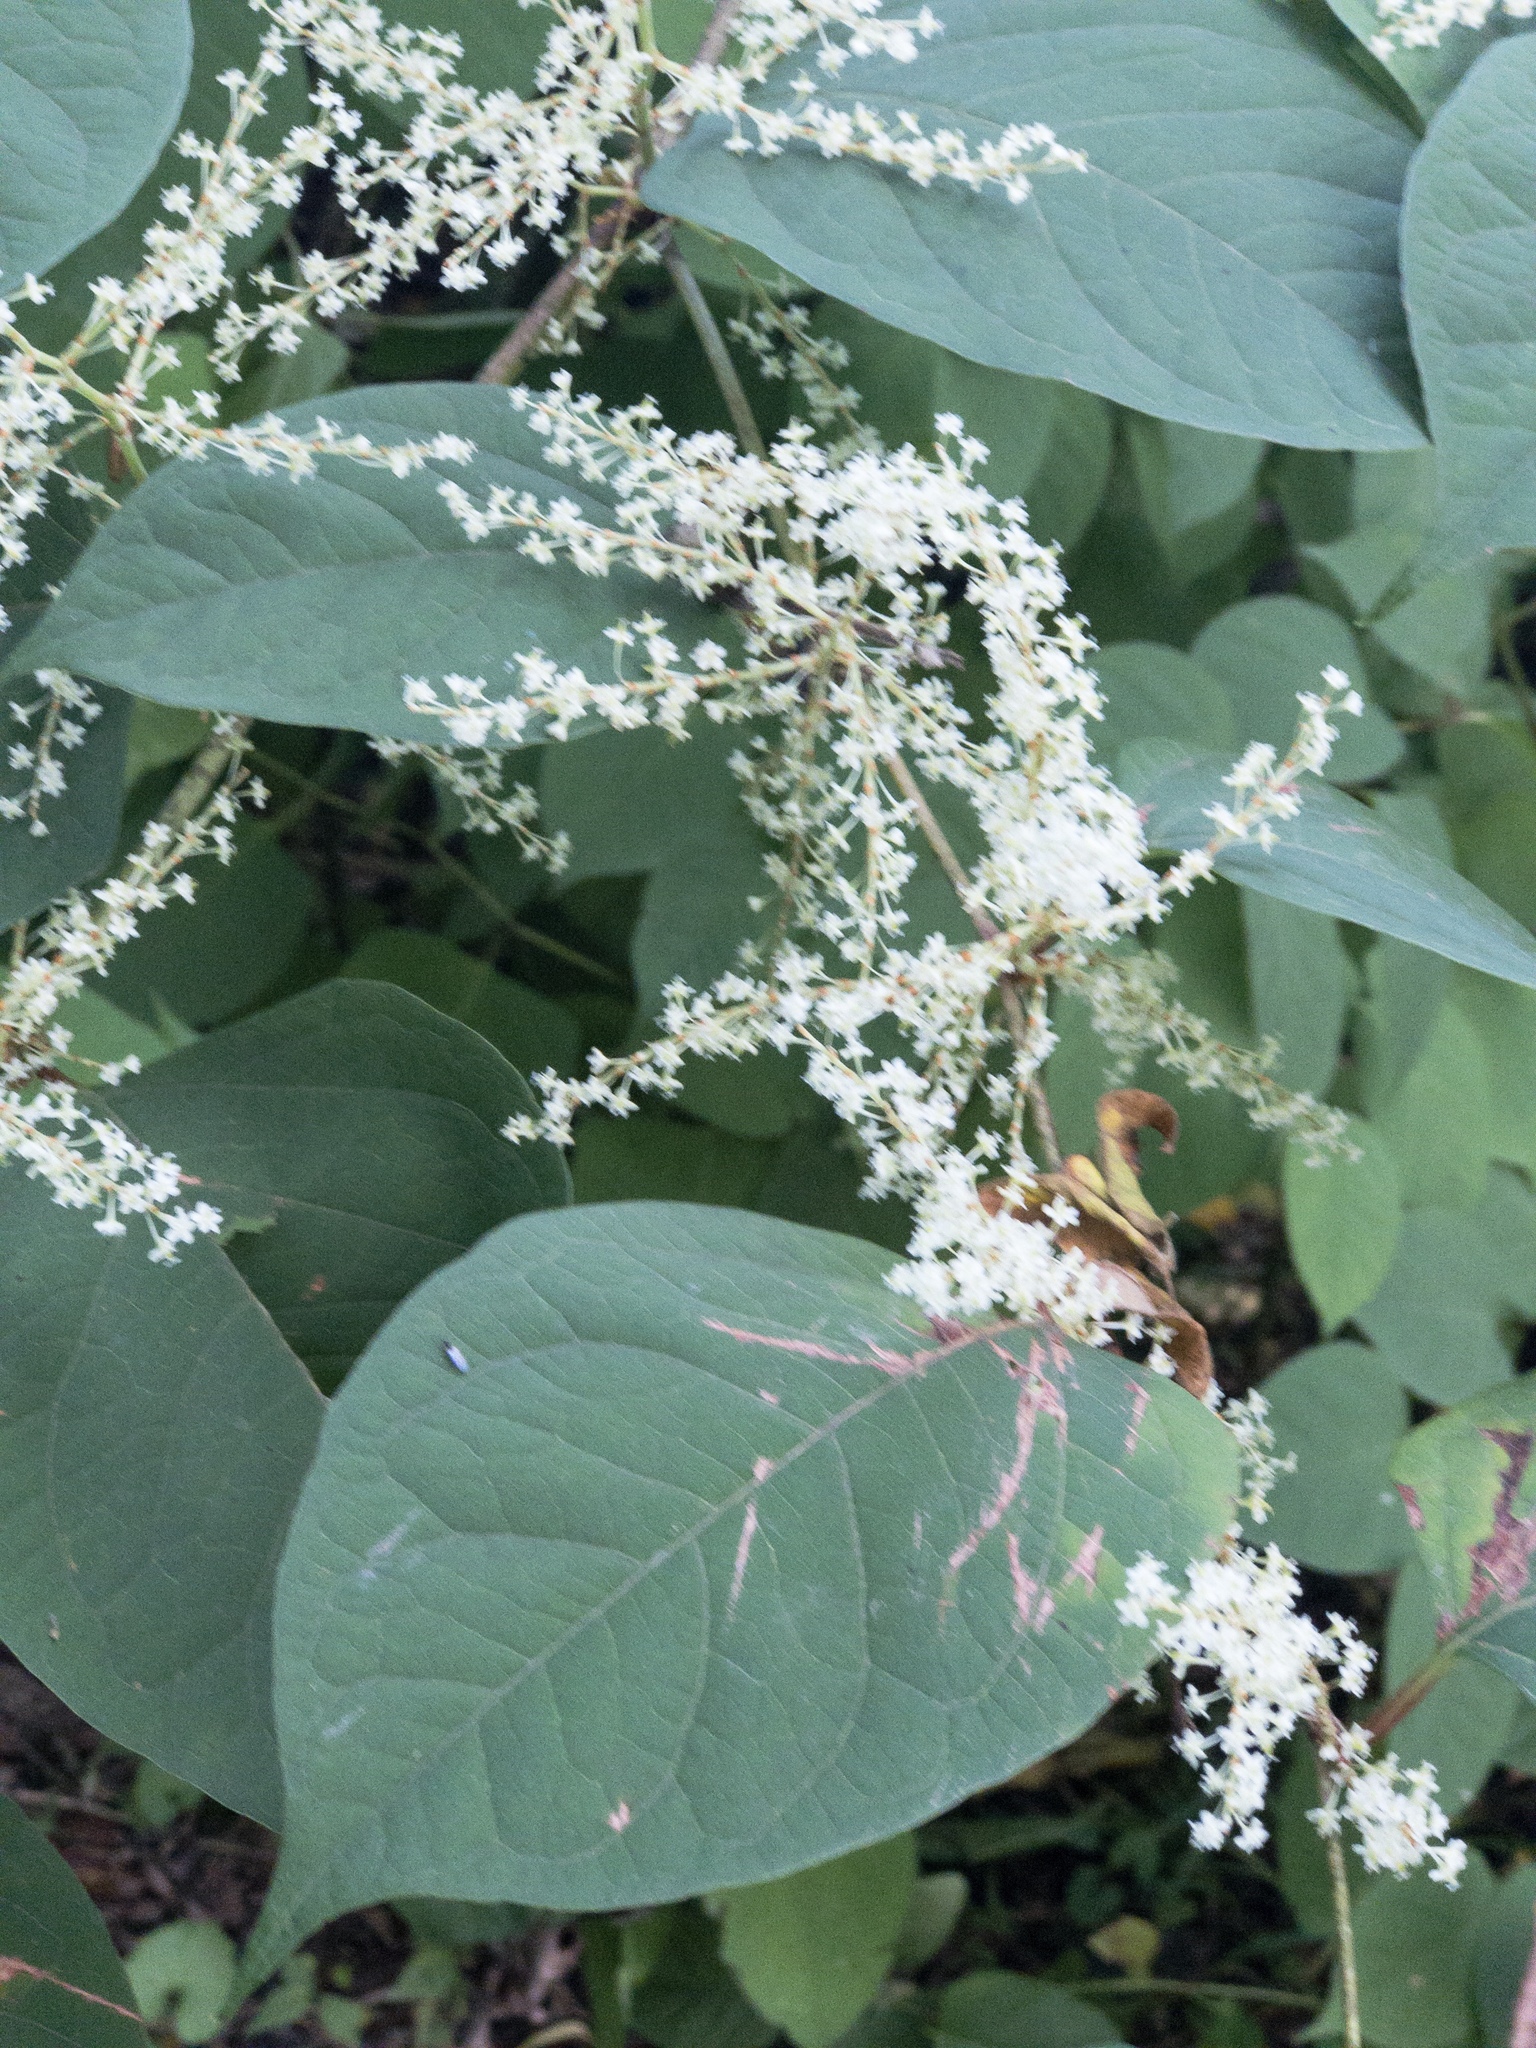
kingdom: Plantae
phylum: Tracheophyta
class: Magnoliopsida
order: Caryophyllales
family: Polygonaceae
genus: Reynoutria
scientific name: Reynoutria japonica
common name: Japanese knotweed
